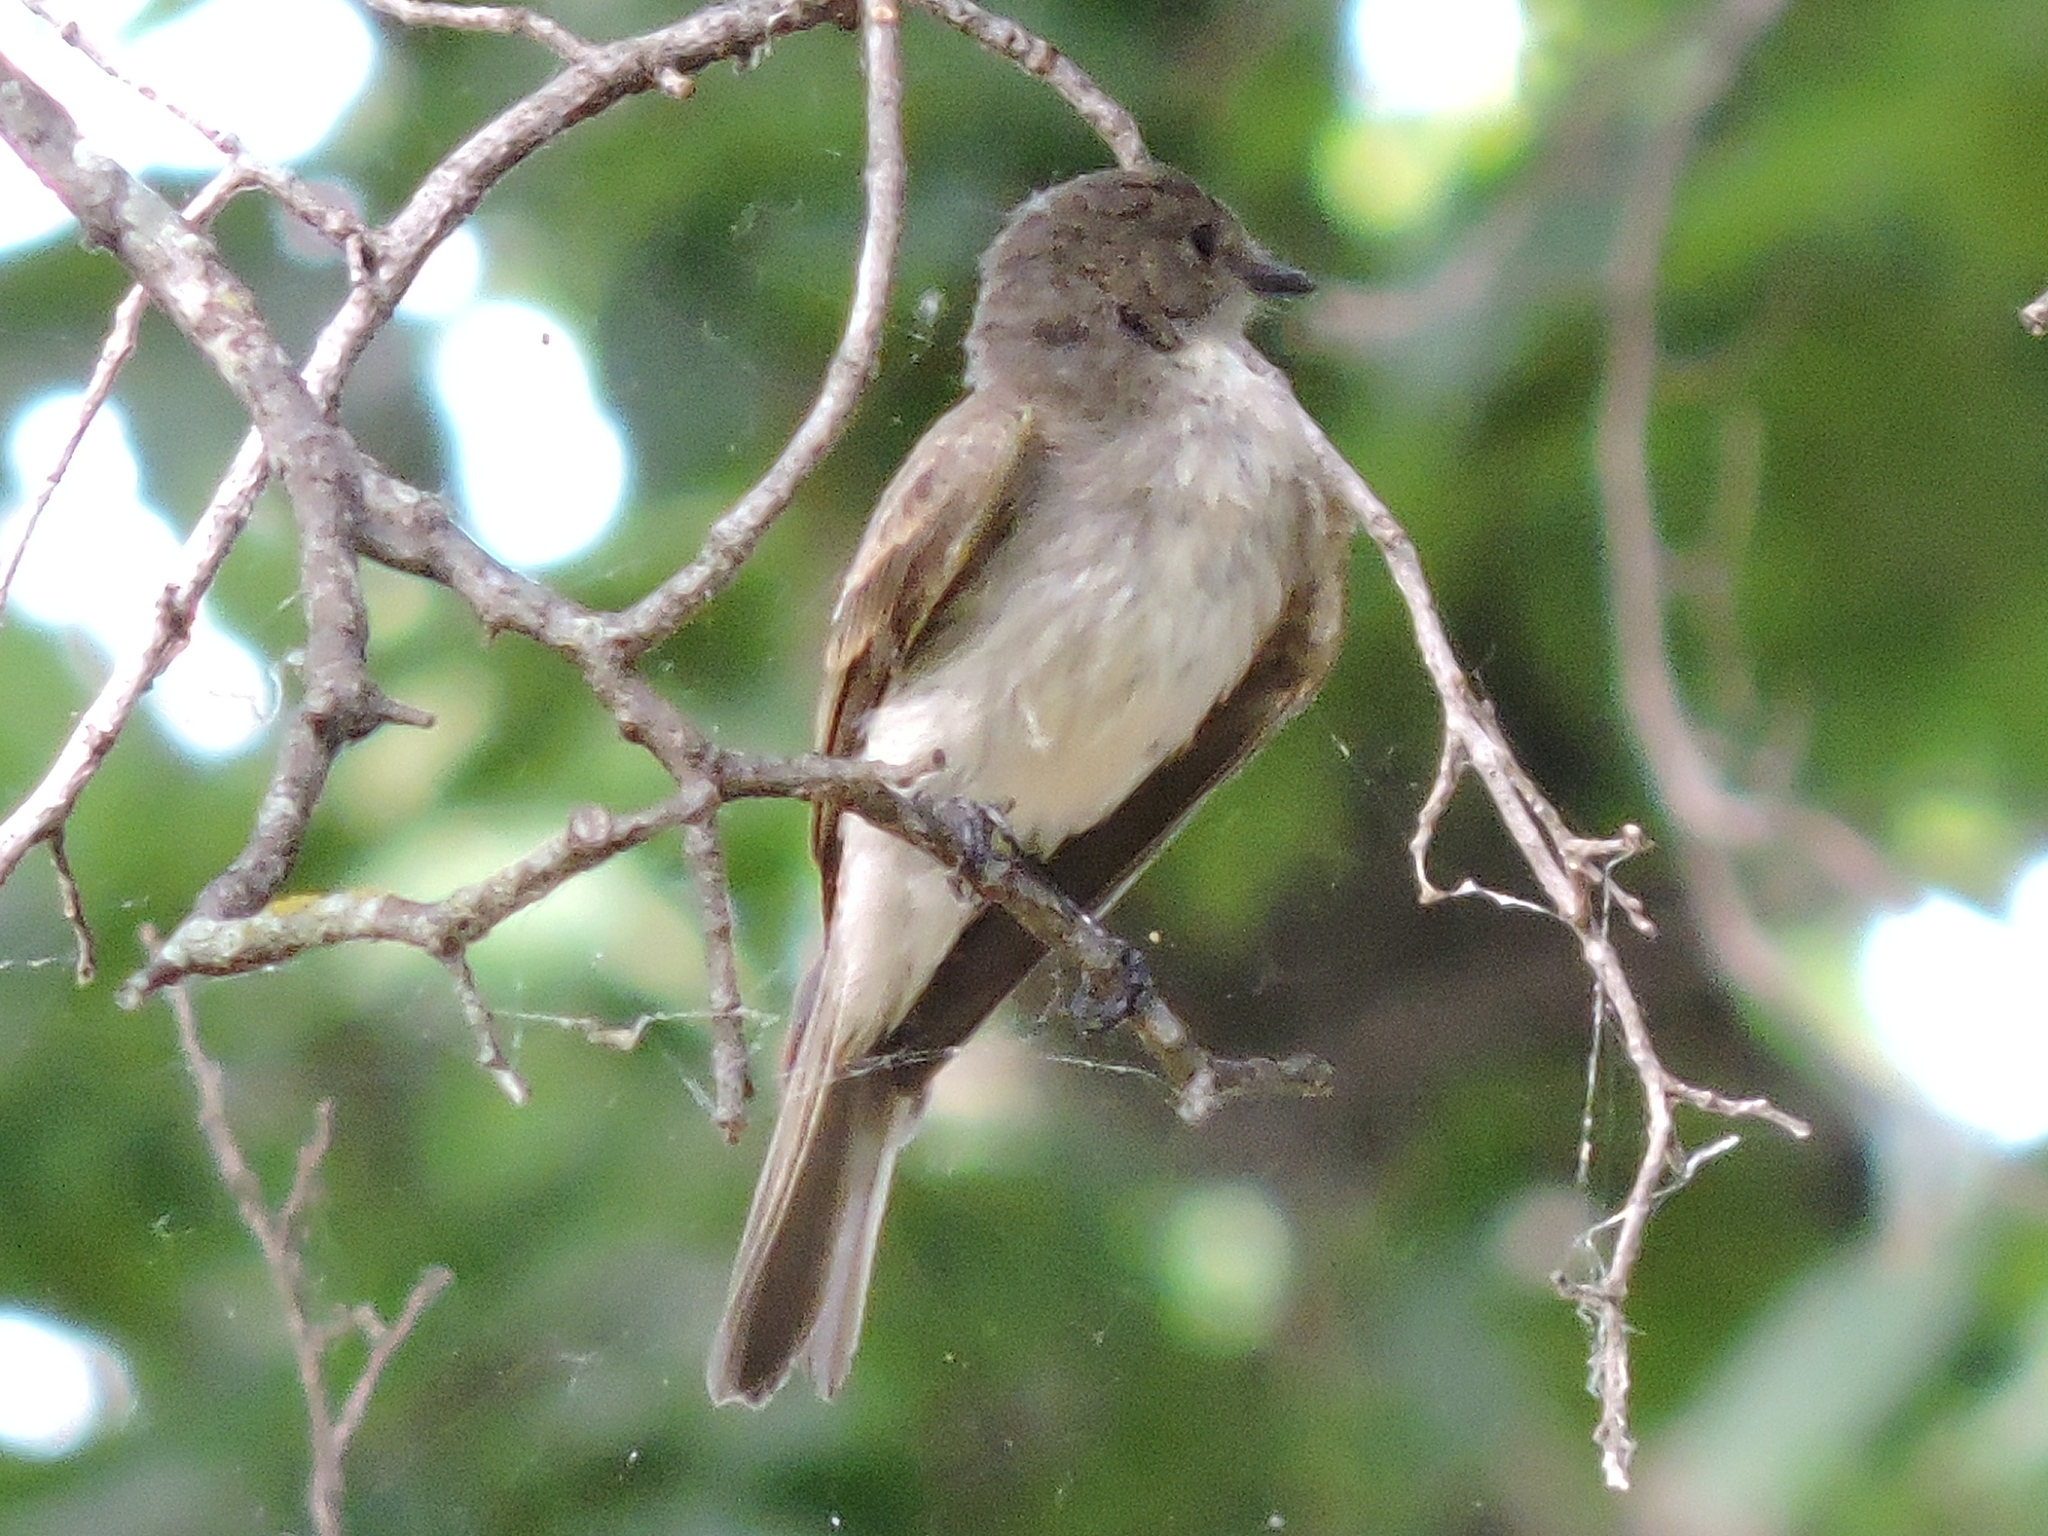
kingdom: Animalia
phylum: Chordata
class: Aves
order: Passeriformes
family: Tyrannidae
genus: Sayornis
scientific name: Sayornis phoebe
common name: Eastern phoebe
